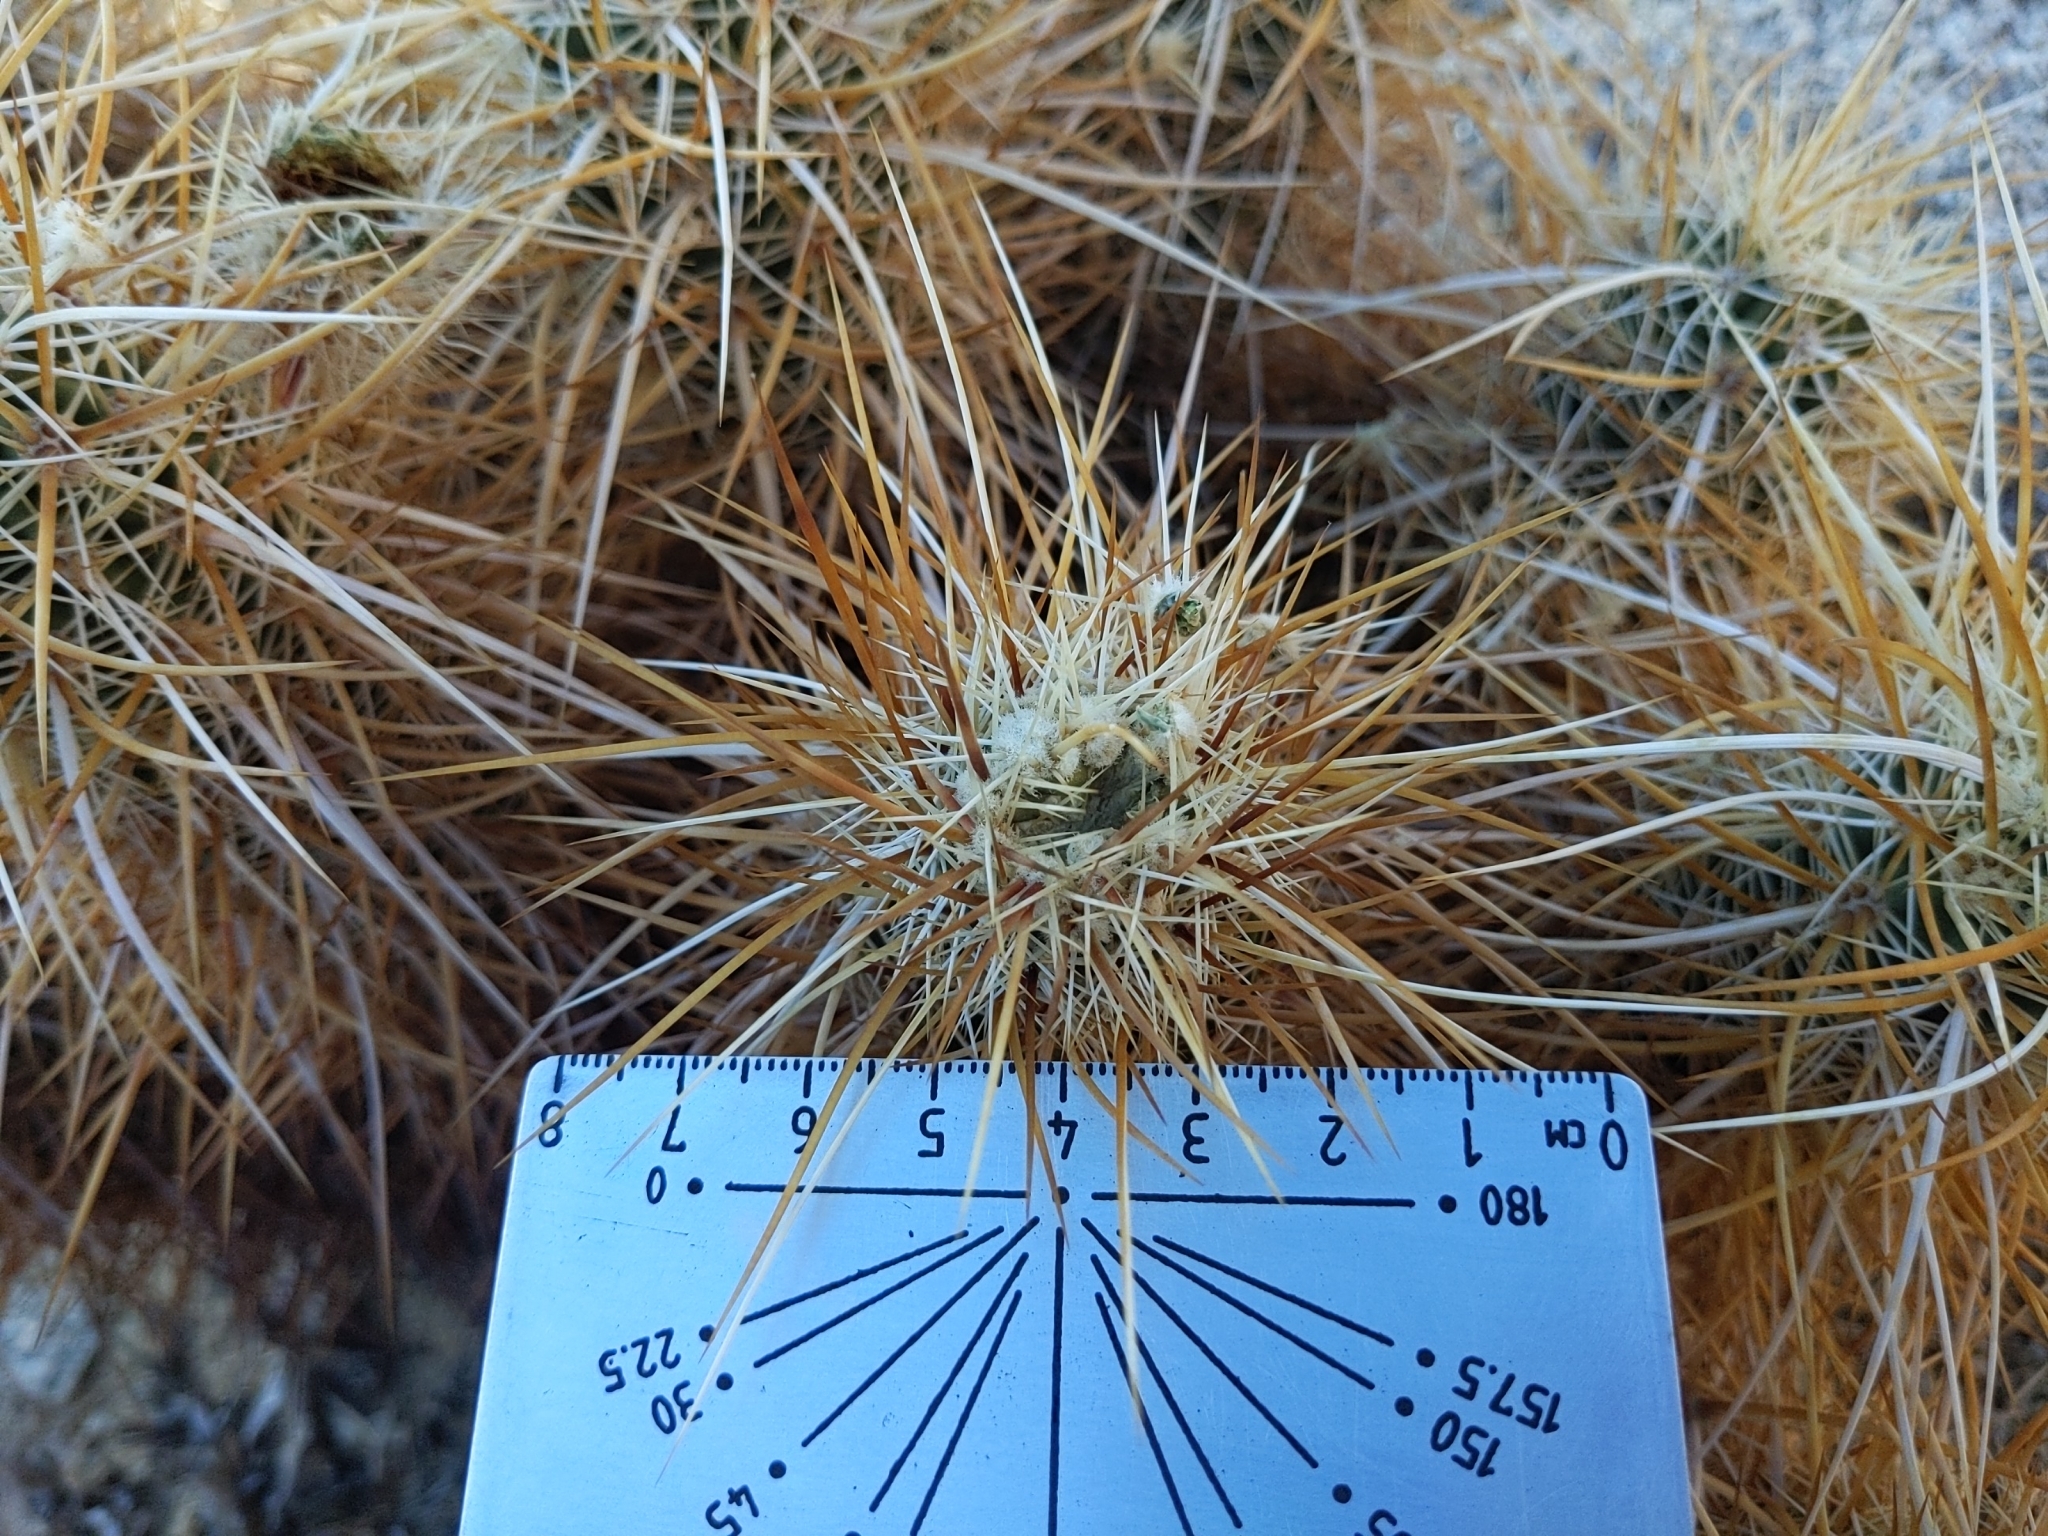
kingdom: Plantae
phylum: Tracheophyta
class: Magnoliopsida
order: Caryophyllales
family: Cactaceae
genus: Echinocereus
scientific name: Echinocereus engelmannii
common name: Engelmann's hedgehog cactus
